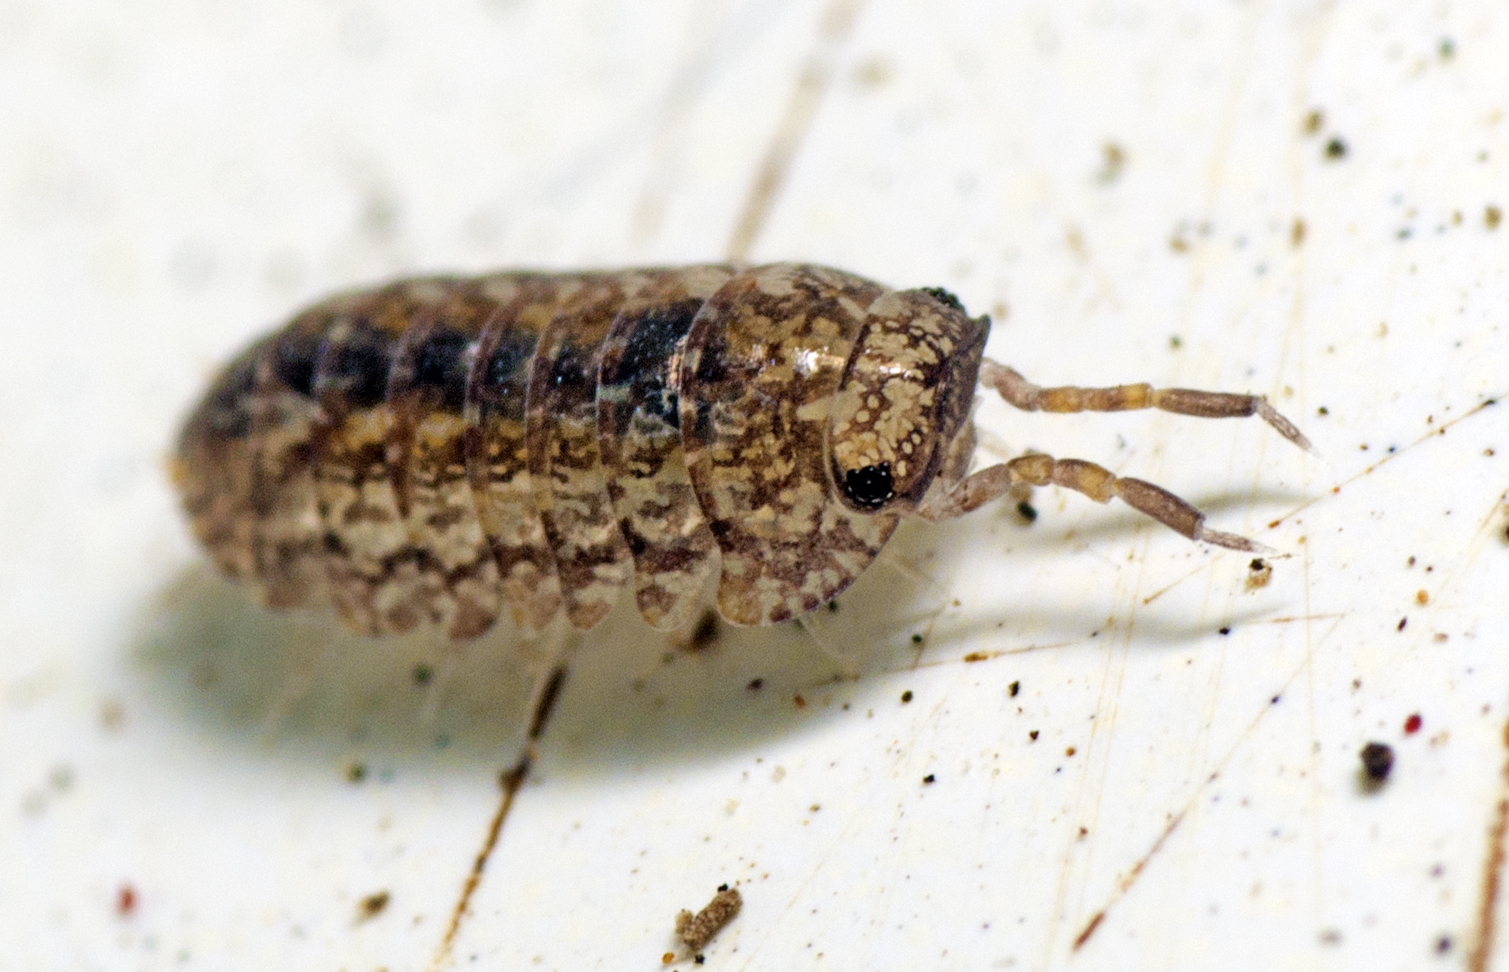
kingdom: Animalia
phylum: Arthropoda
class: Malacostraca
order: Isopoda
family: Armadillidae
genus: Cubaris
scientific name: Cubaris marmorata
